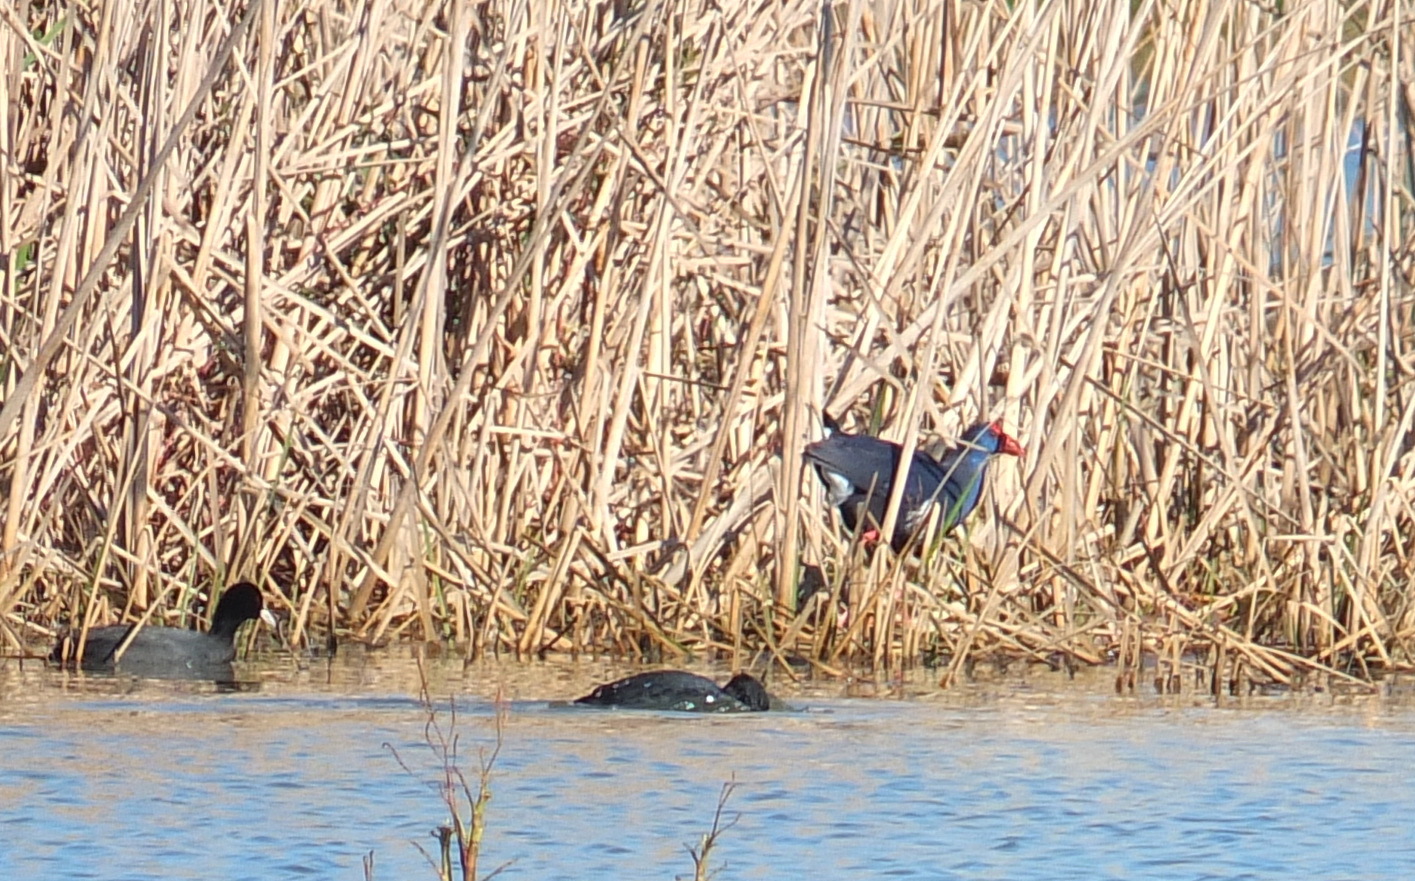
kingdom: Animalia
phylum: Chordata
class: Aves
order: Gruiformes
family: Rallidae
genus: Porphyrio
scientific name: Porphyrio porphyrio
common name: Purple swamphen
